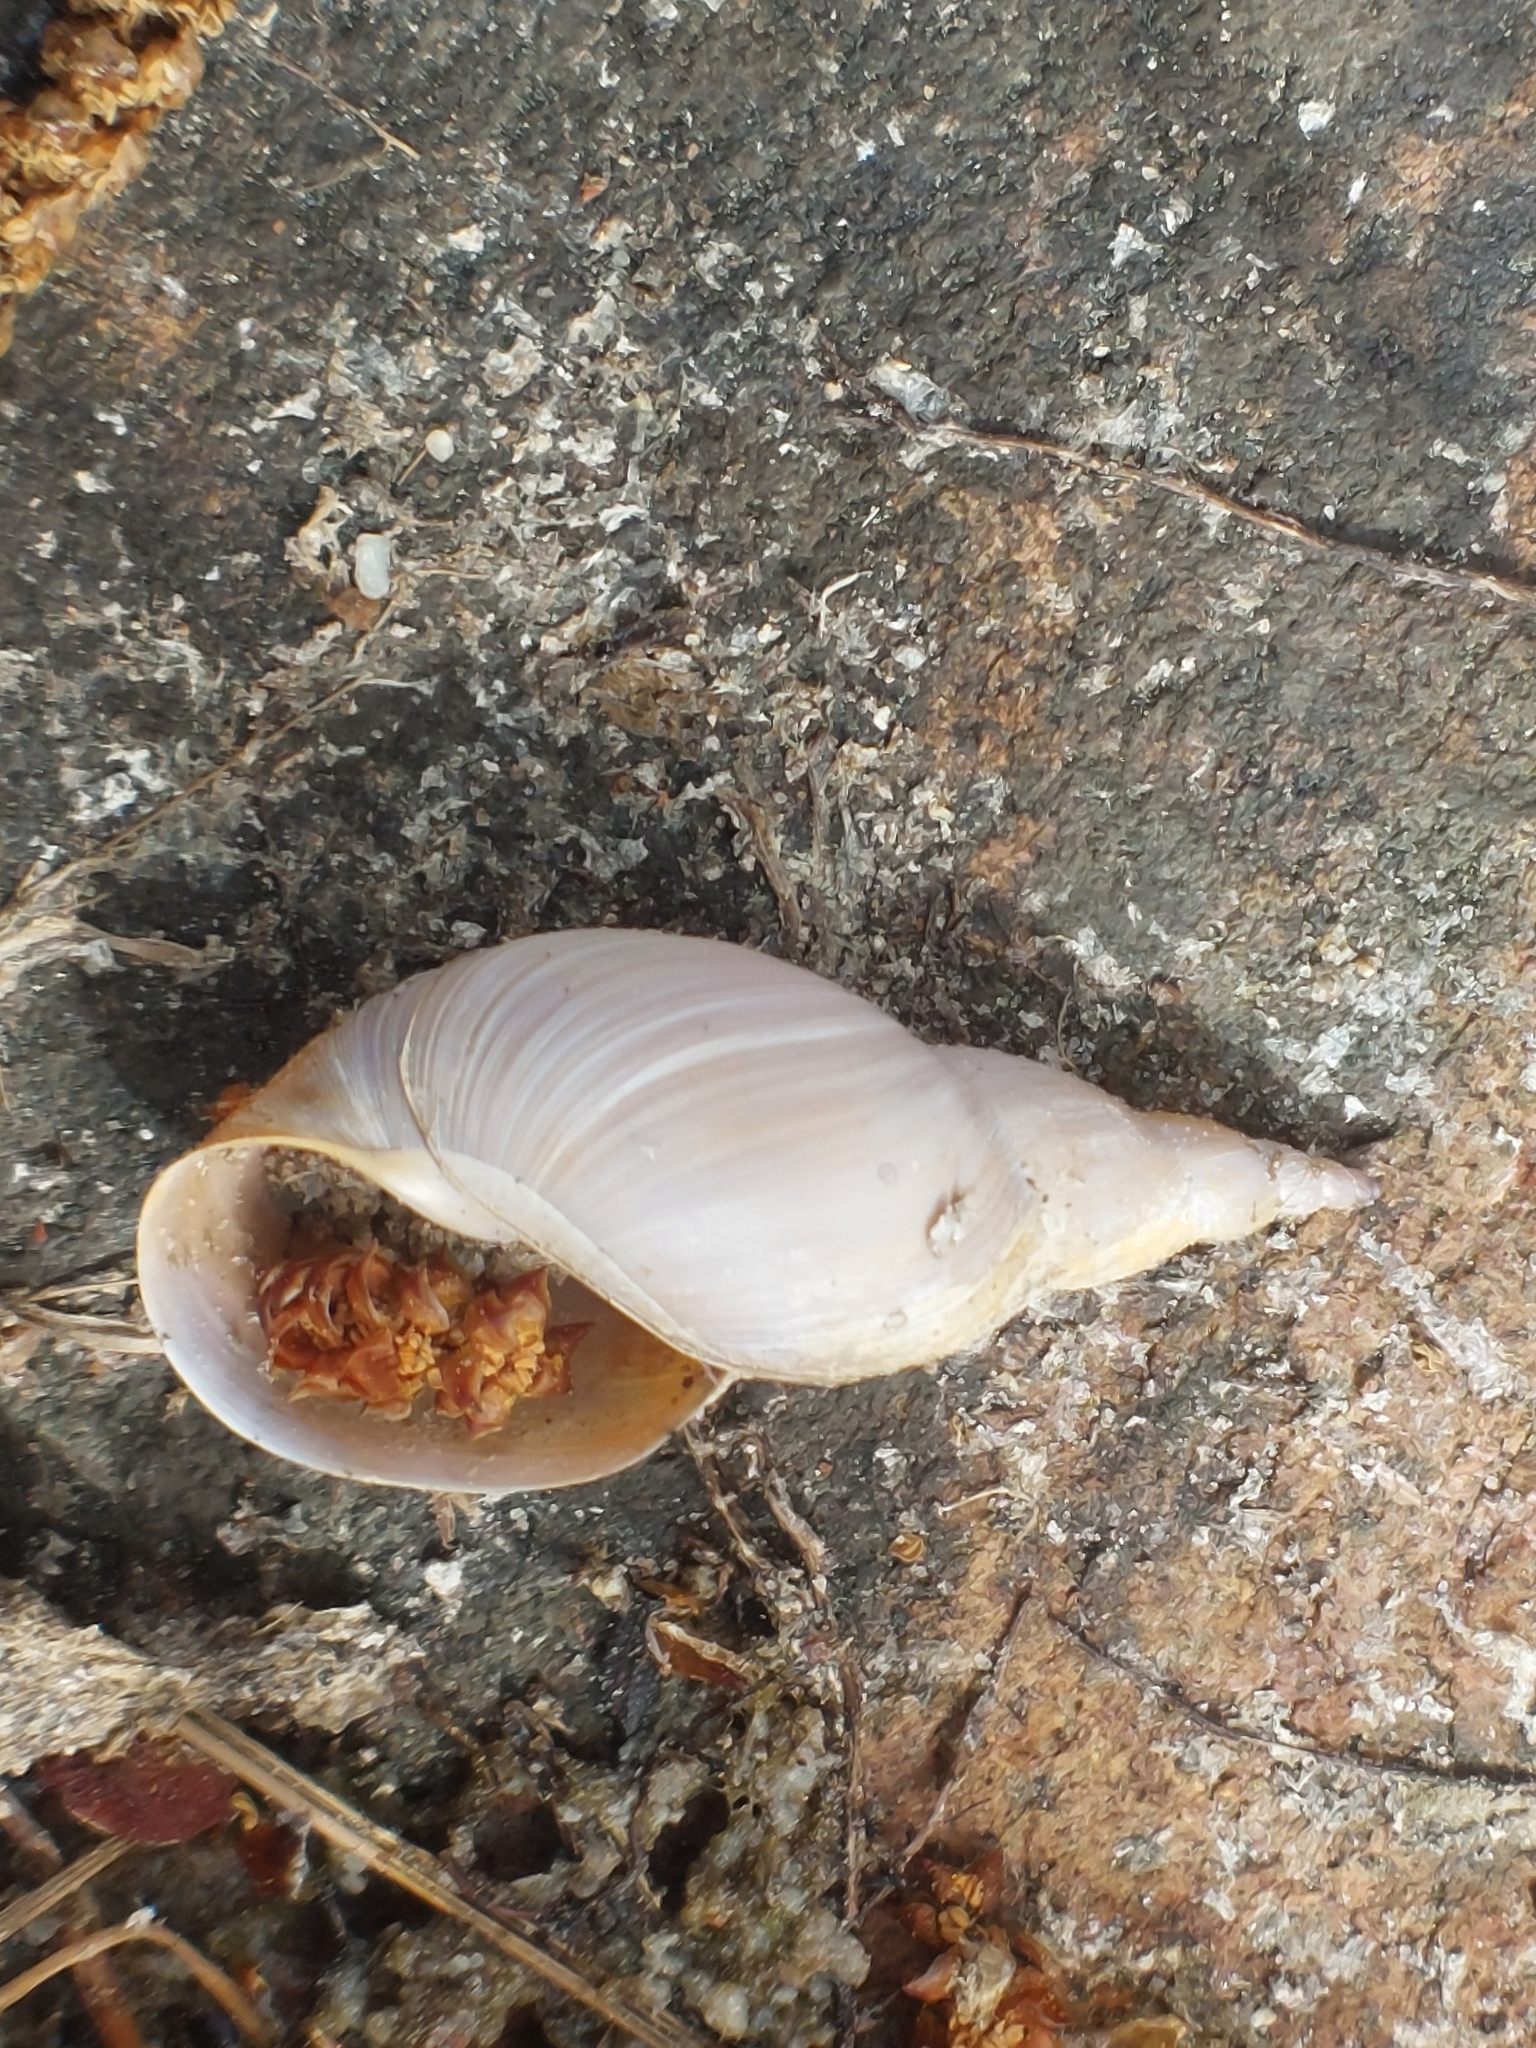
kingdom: Animalia
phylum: Mollusca
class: Gastropoda
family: Lymnaeidae
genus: Lymnaea
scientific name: Lymnaea stagnalis
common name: Great pond snail
